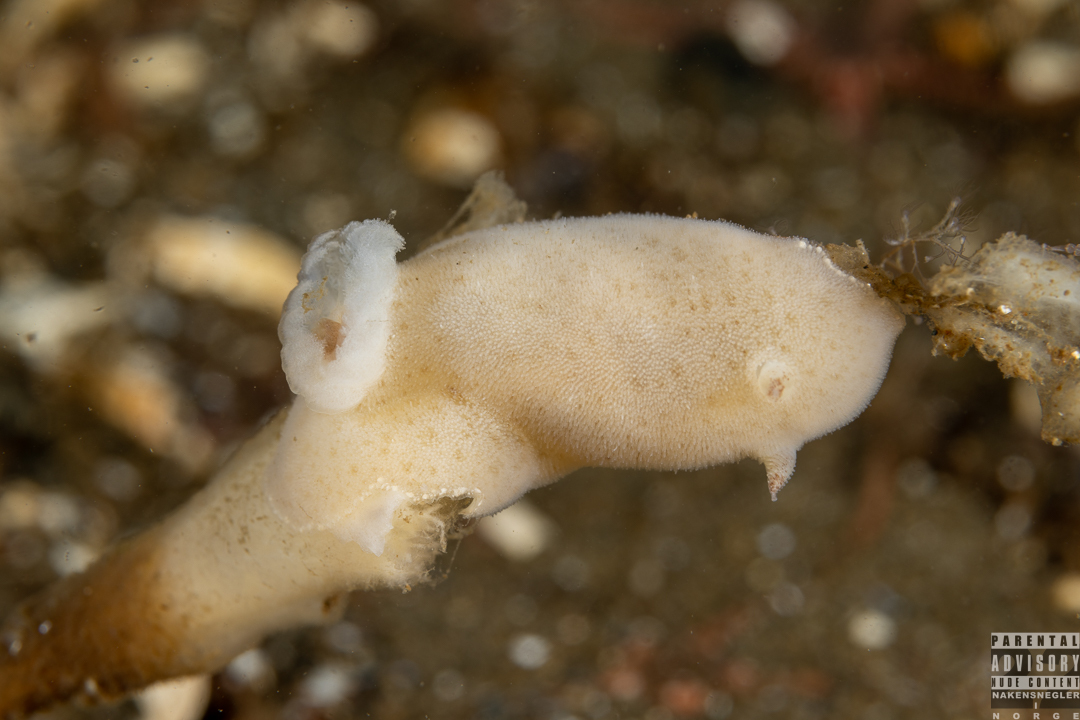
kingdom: Animalia
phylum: Mollusca
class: Gastropoda
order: Nudibranchia
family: Discodorididae
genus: Jorunna
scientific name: Jorunna tomentosa
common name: Grey sea slug
